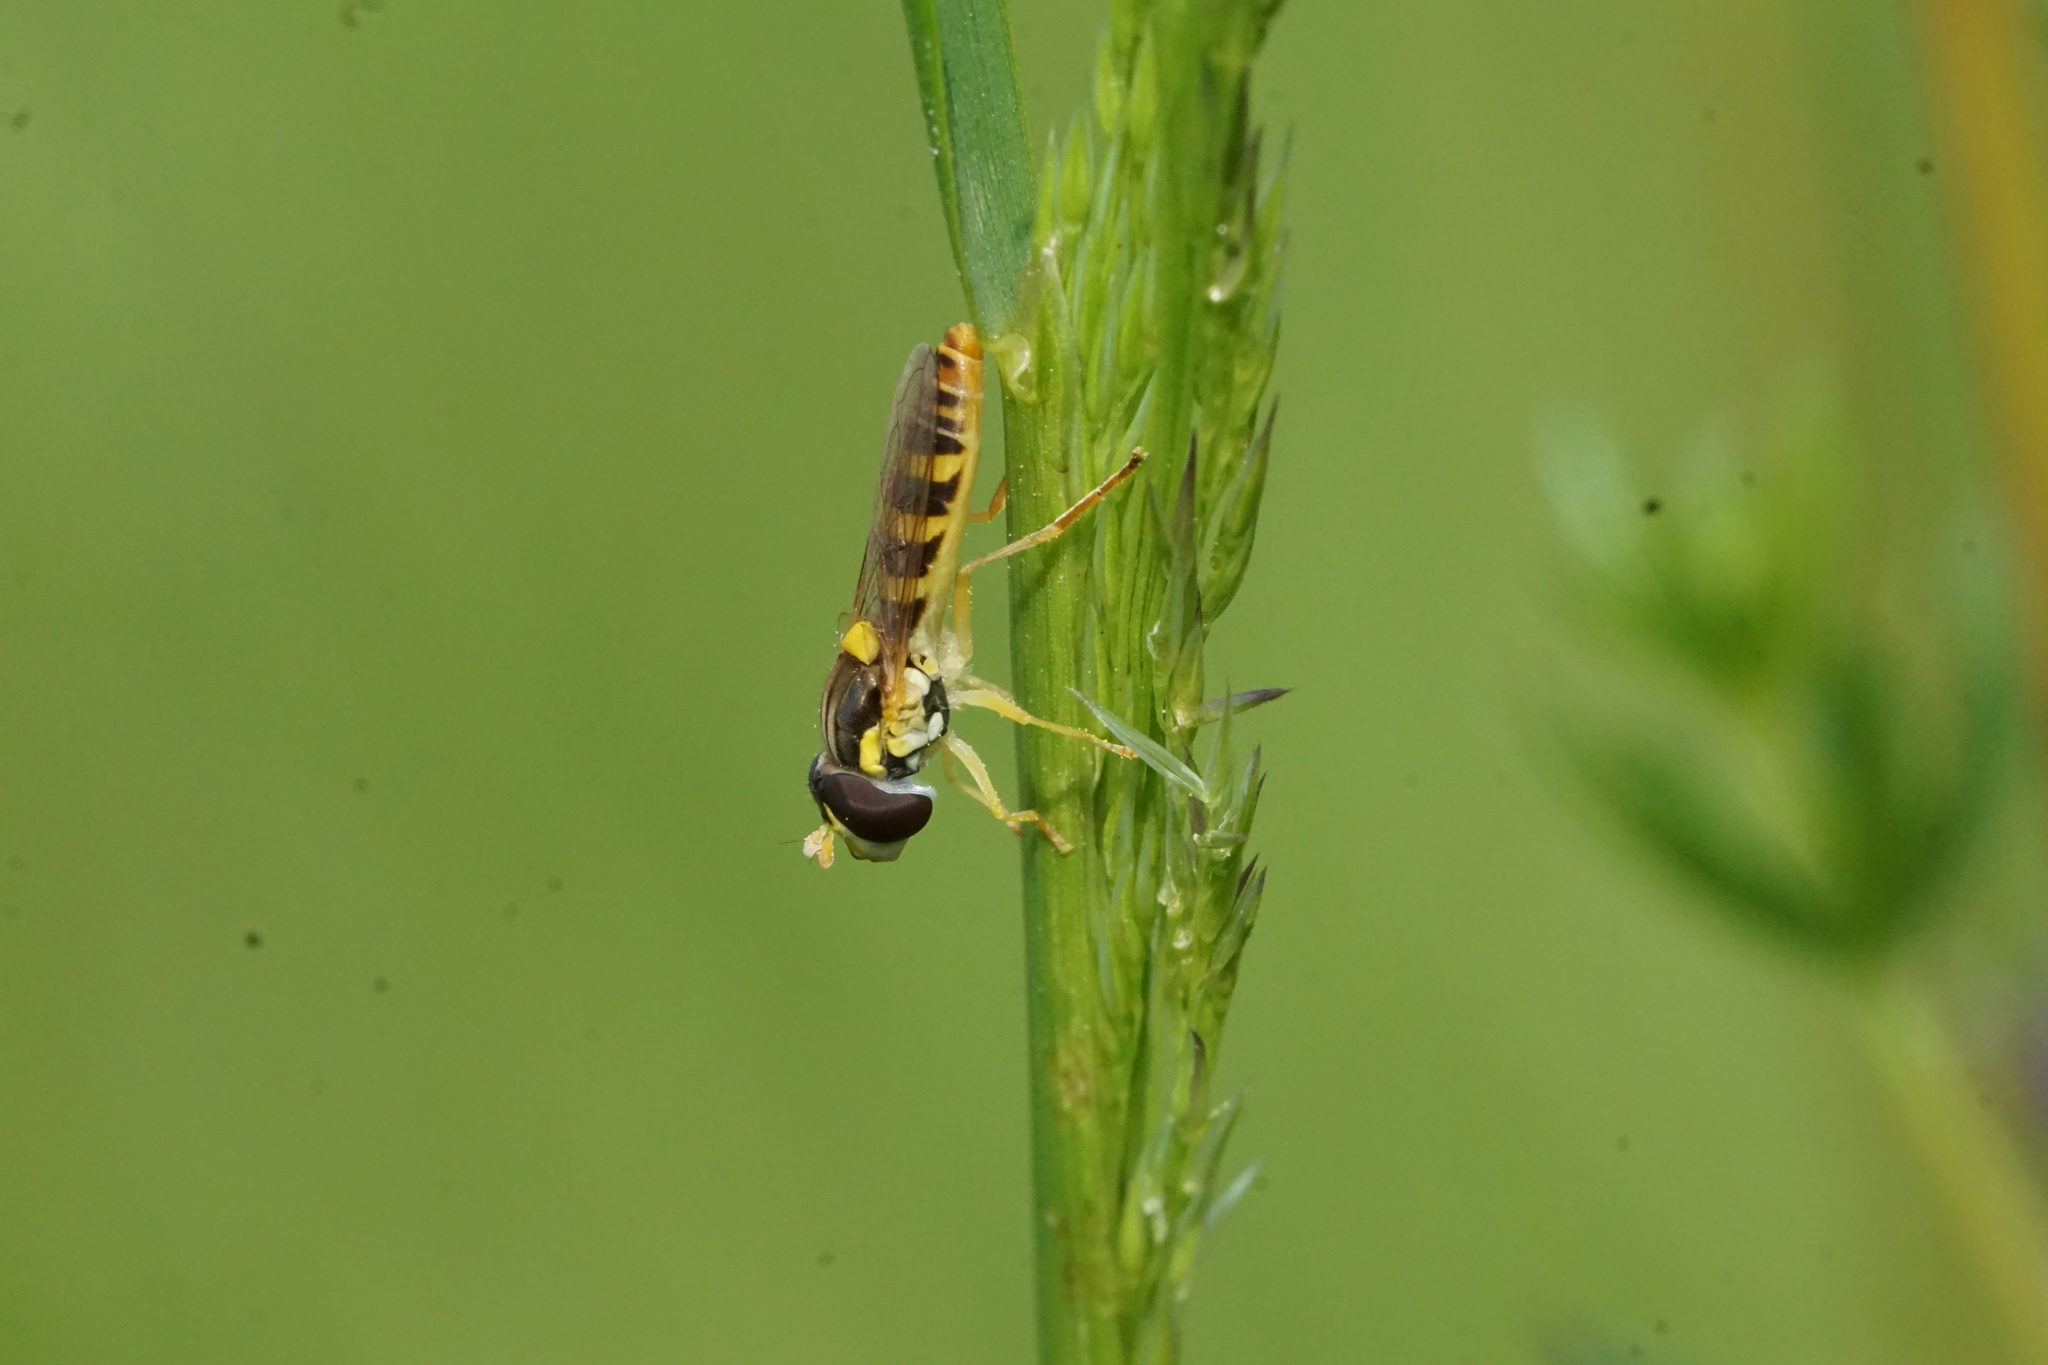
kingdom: Animalia
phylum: Arthropoda
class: Insecta
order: Diptera
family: Syrphidae
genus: Sphaerophoria
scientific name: Sphaerophoria contigua
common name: Tufted globetail
